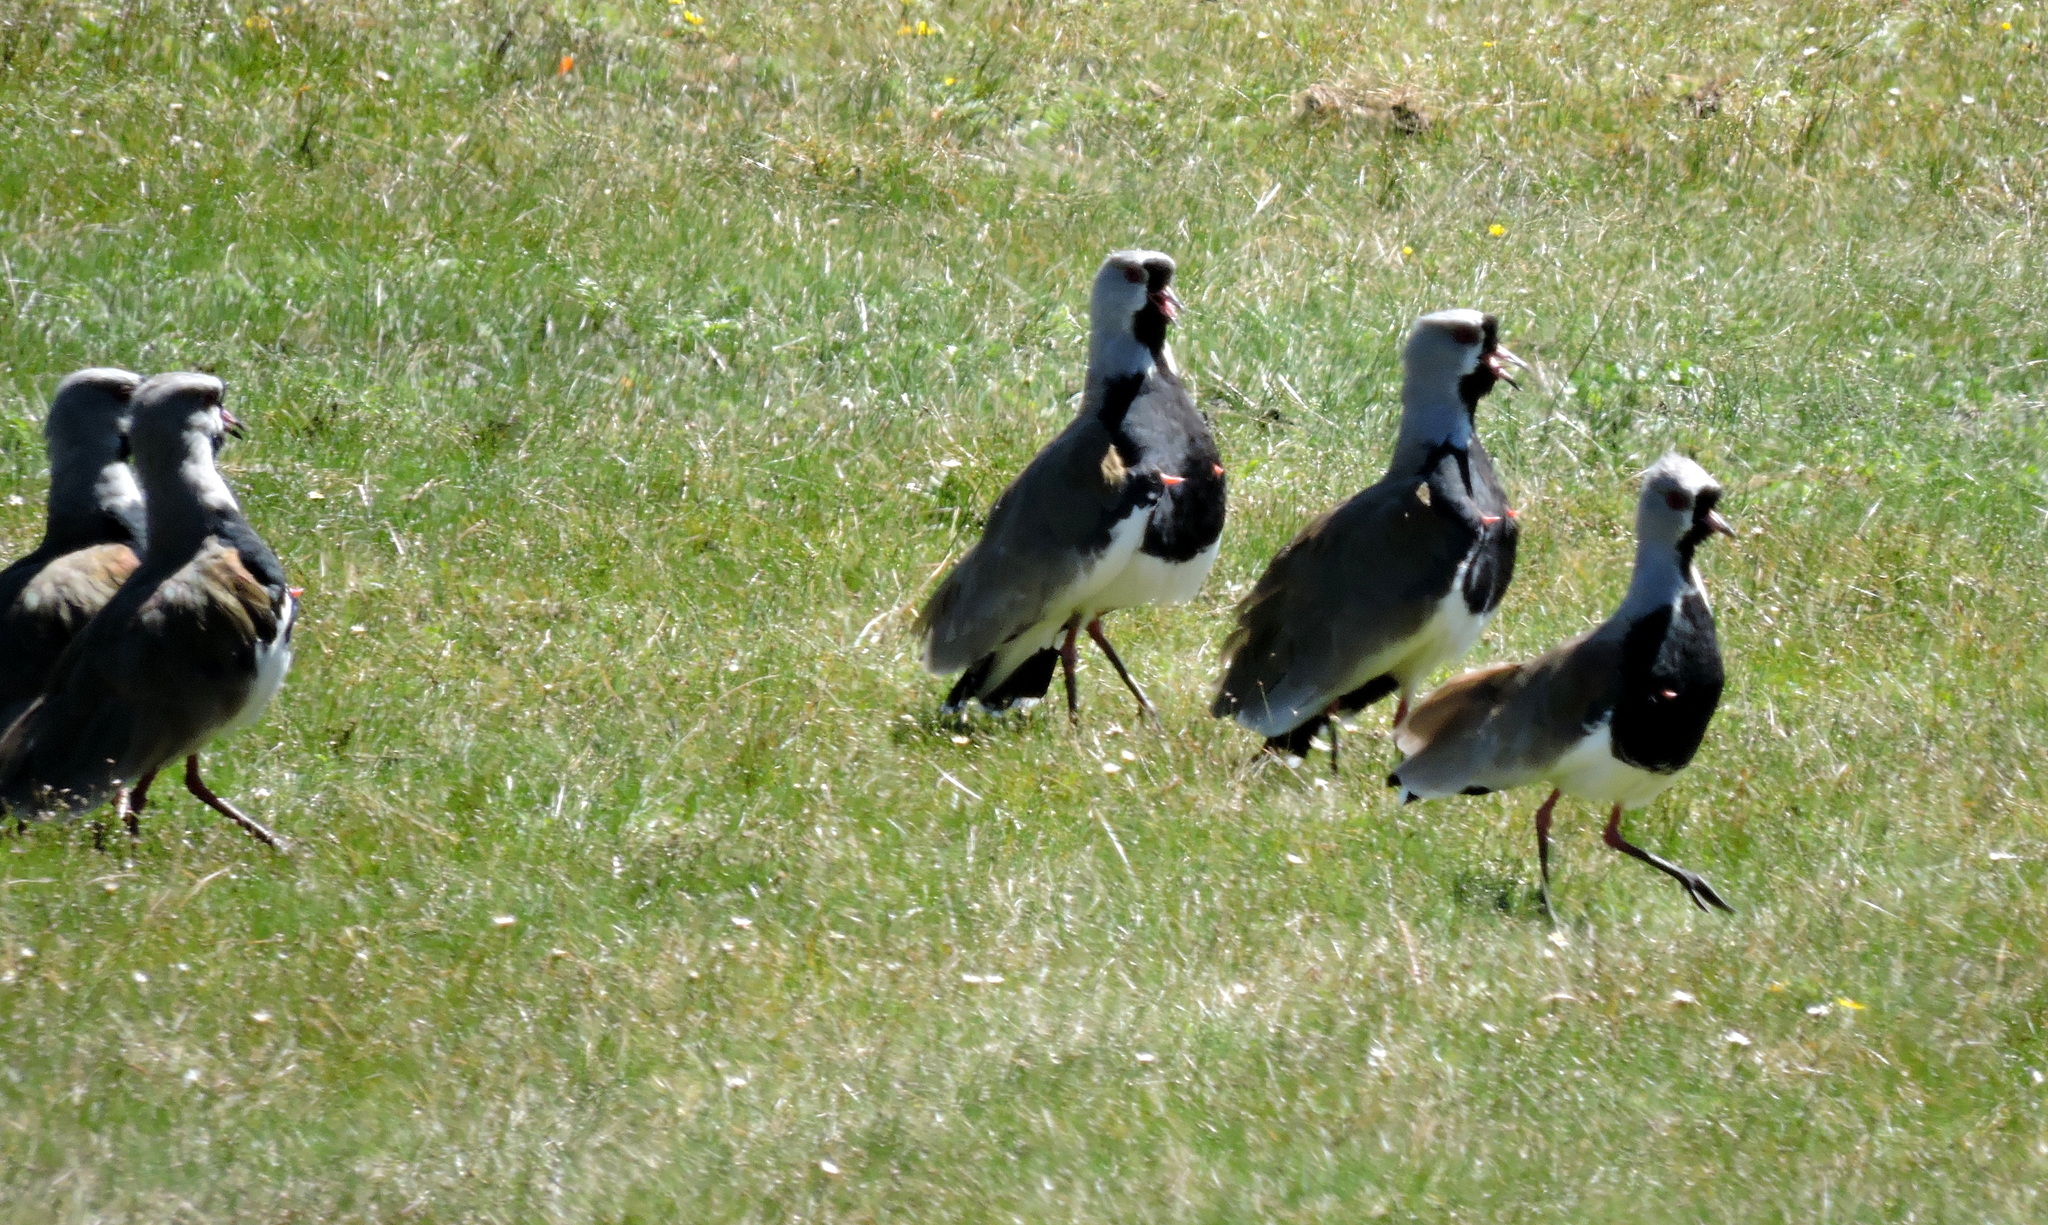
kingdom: Animalia
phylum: Chordata
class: Aves
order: Charadriiformes
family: Charadriidae
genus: Vanellus
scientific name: Vanellus chilensis
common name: Southern lapwing
